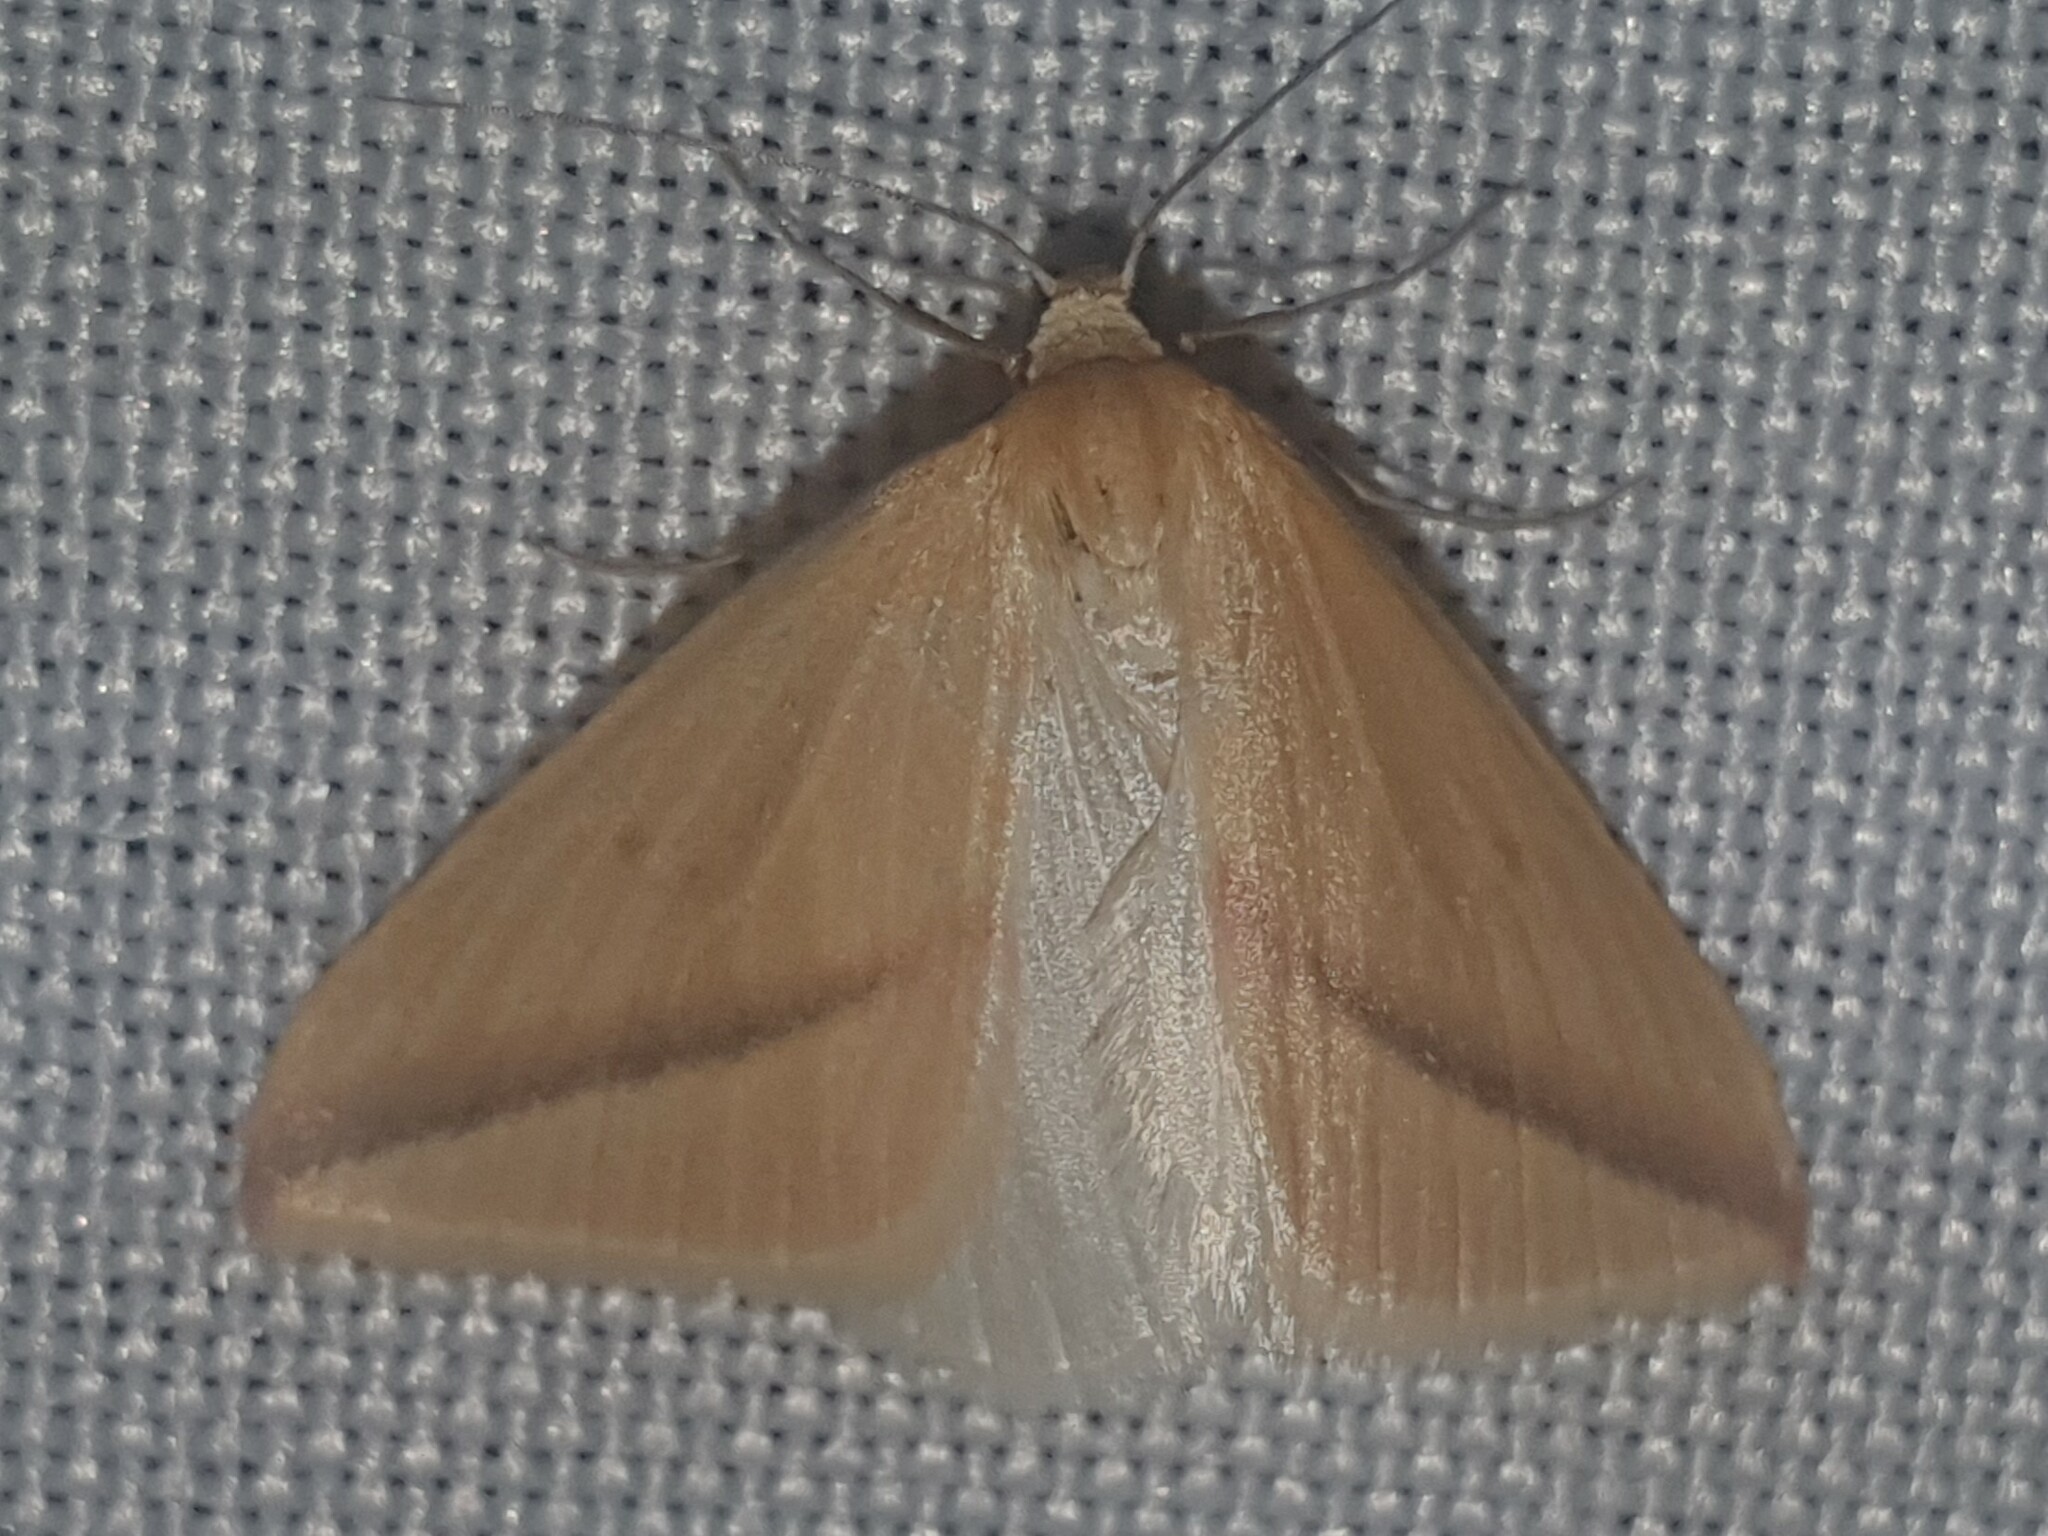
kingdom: Animalia
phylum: Arthropoda
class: Insecta
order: Lepidoptera
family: Geometridae
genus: Rhodometra
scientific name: Rhodometra sacraria
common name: Vestal
